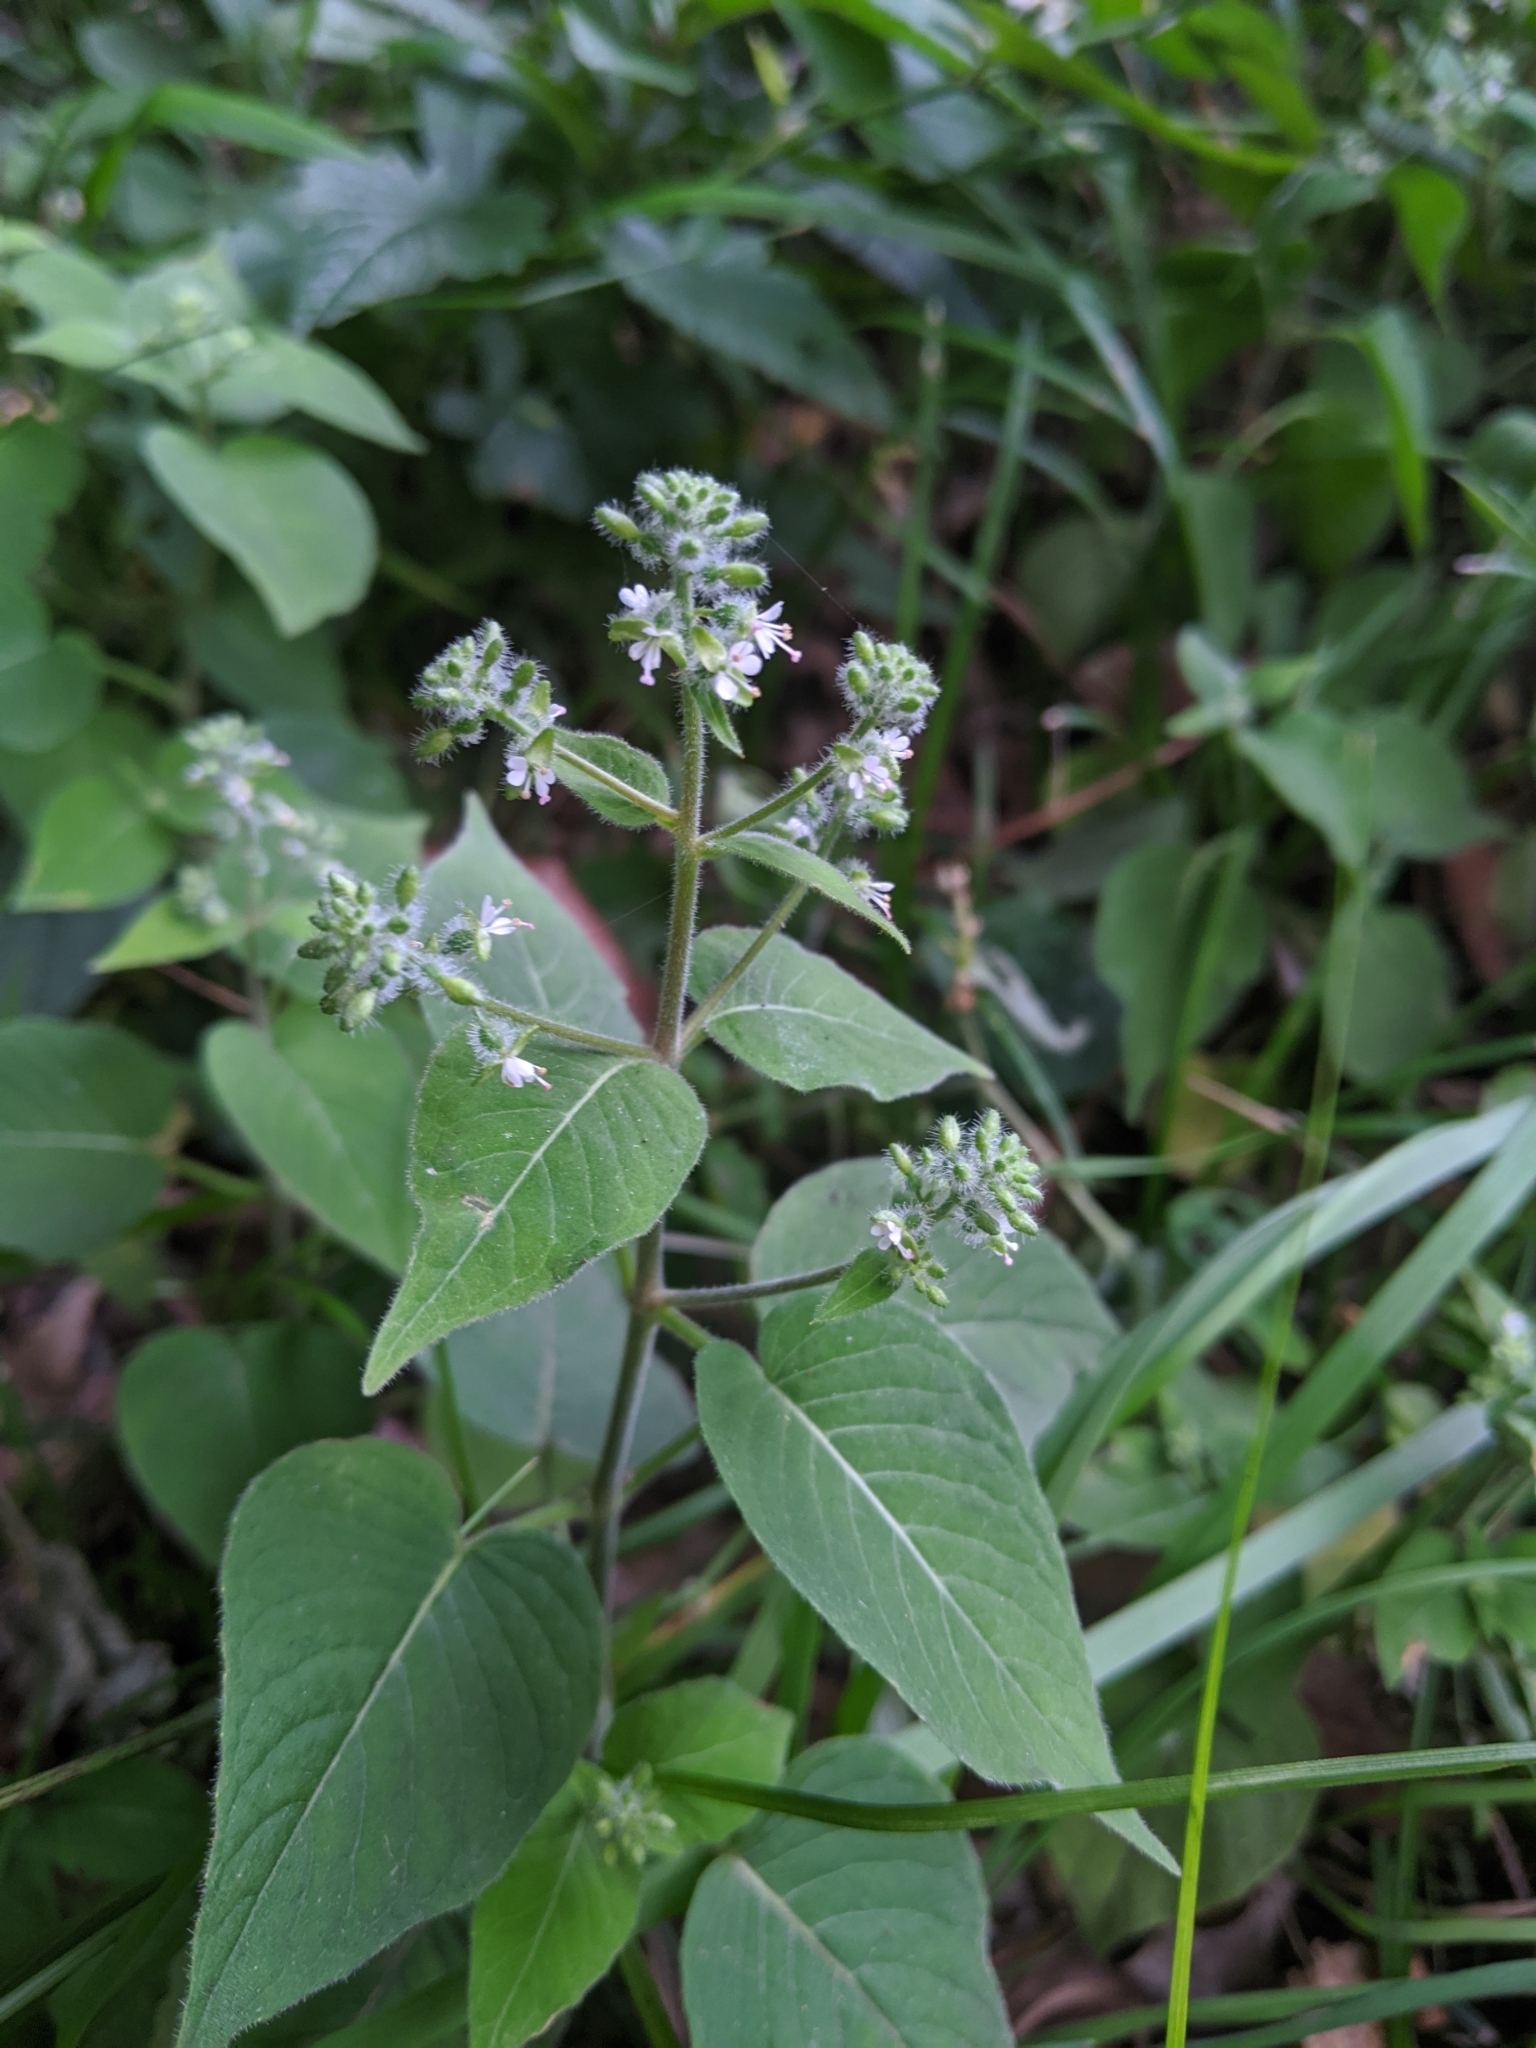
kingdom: Plantae
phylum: Tracheophyta
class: Magnoliopsida
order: Myrtales
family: Onagraceae
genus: Circaea
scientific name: Circaea cordata
